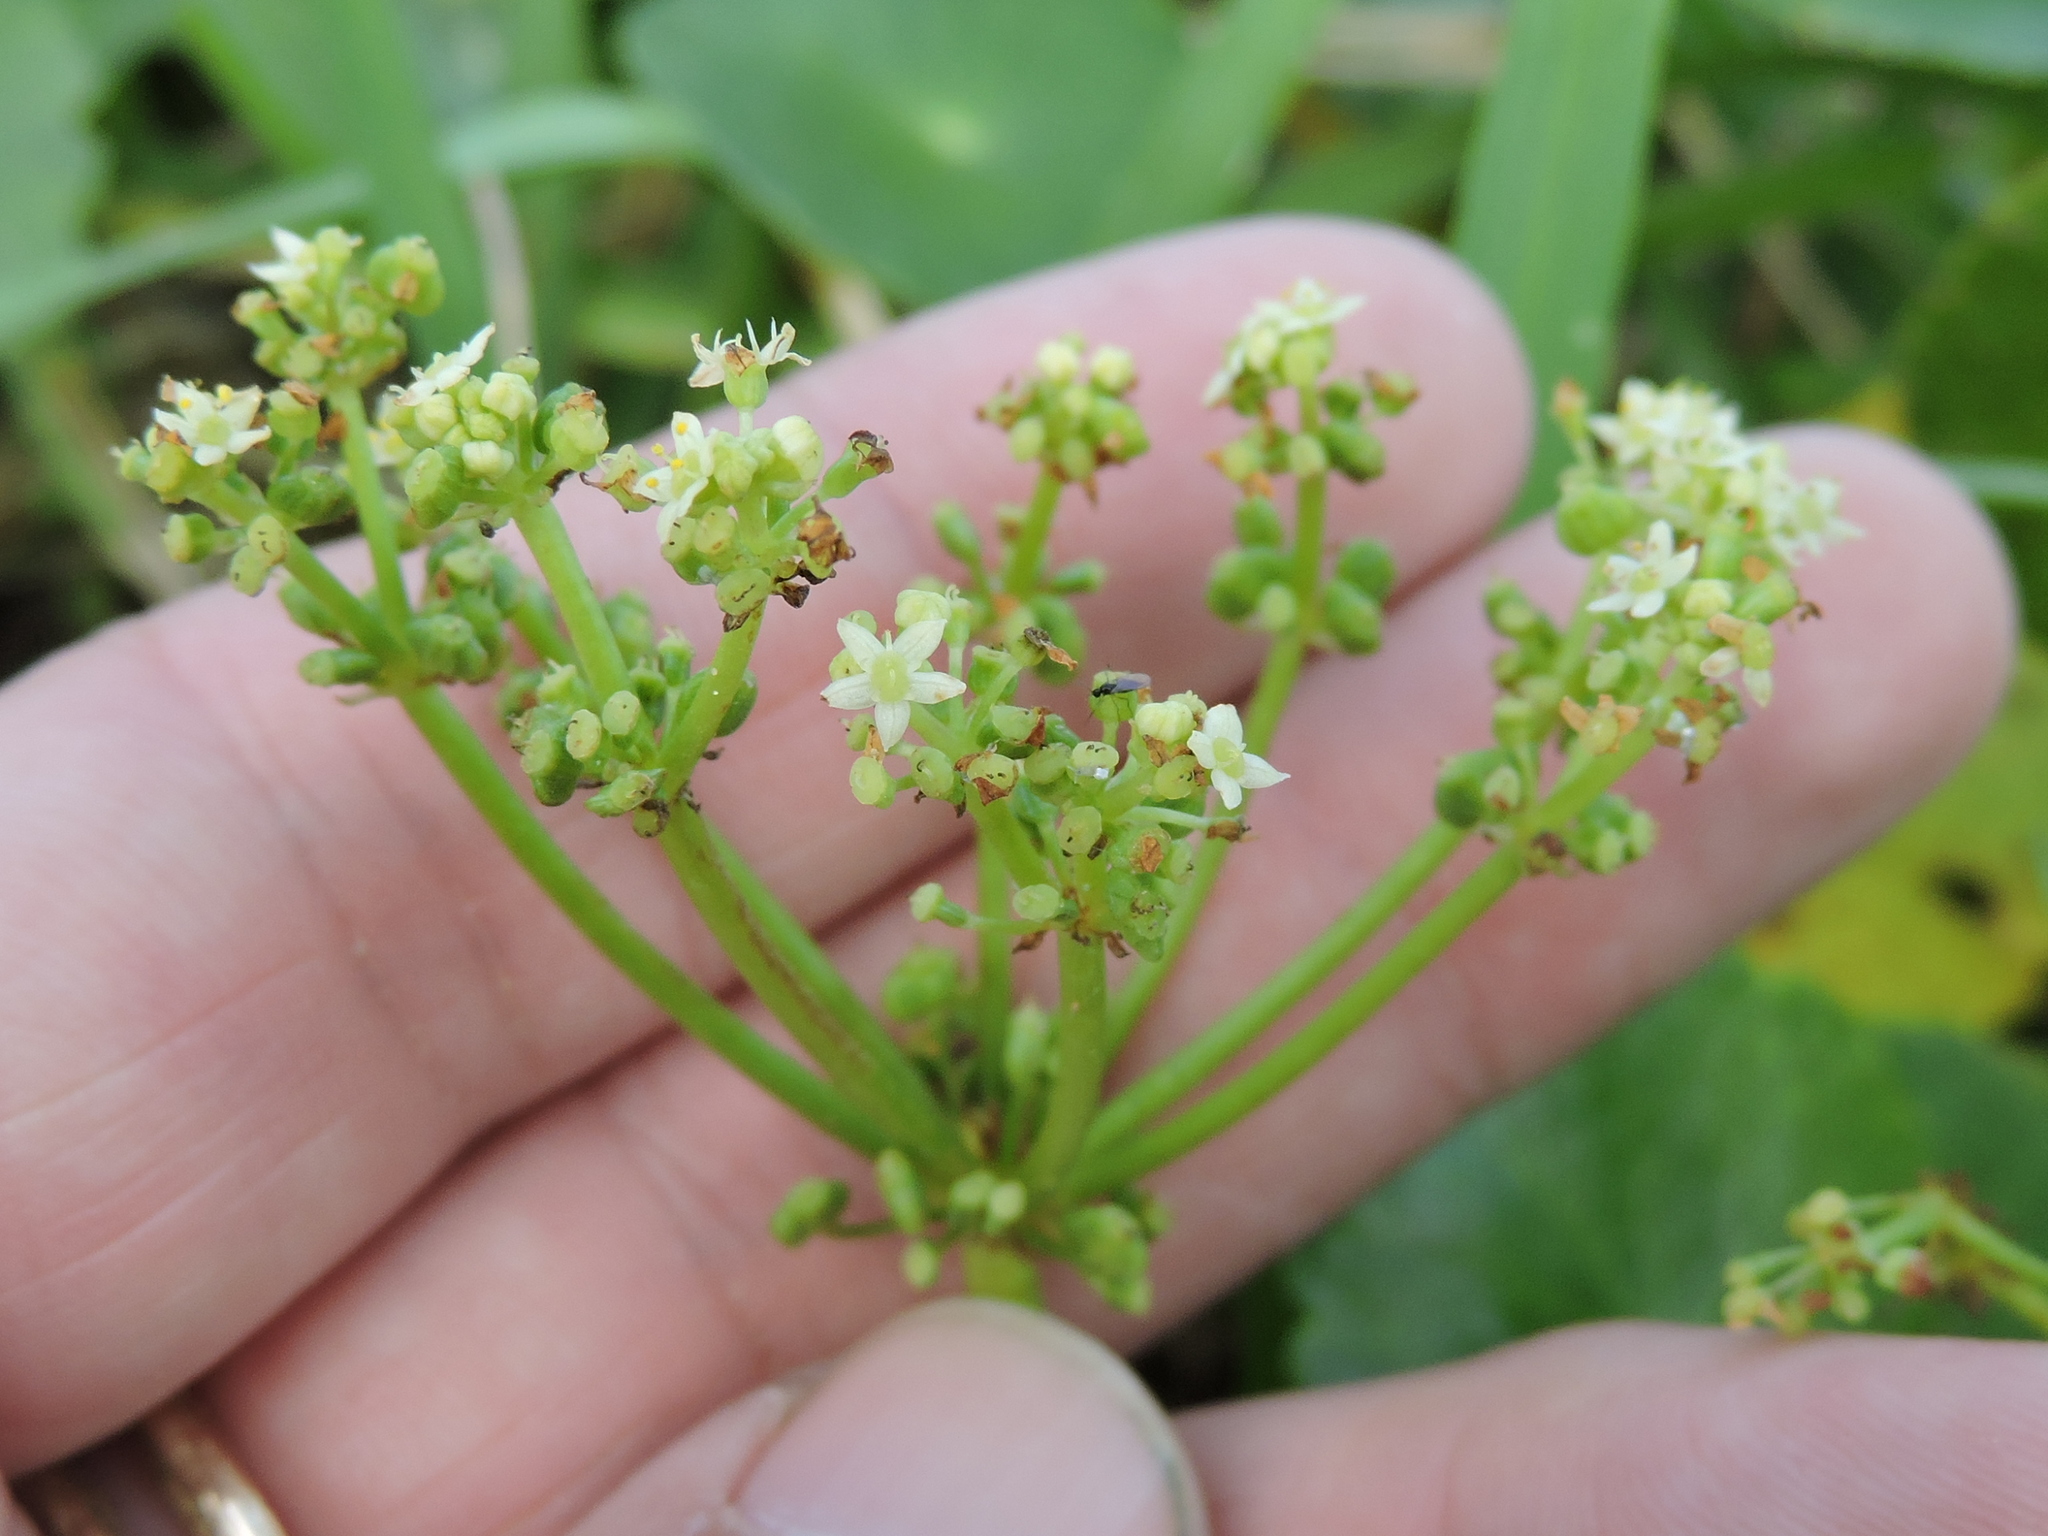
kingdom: Plantae
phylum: Tracheophyta
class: Magnoliopsida
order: Apiales
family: Araliaceae
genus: Hydrocotyle
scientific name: Hydrocotyle bonariensis
